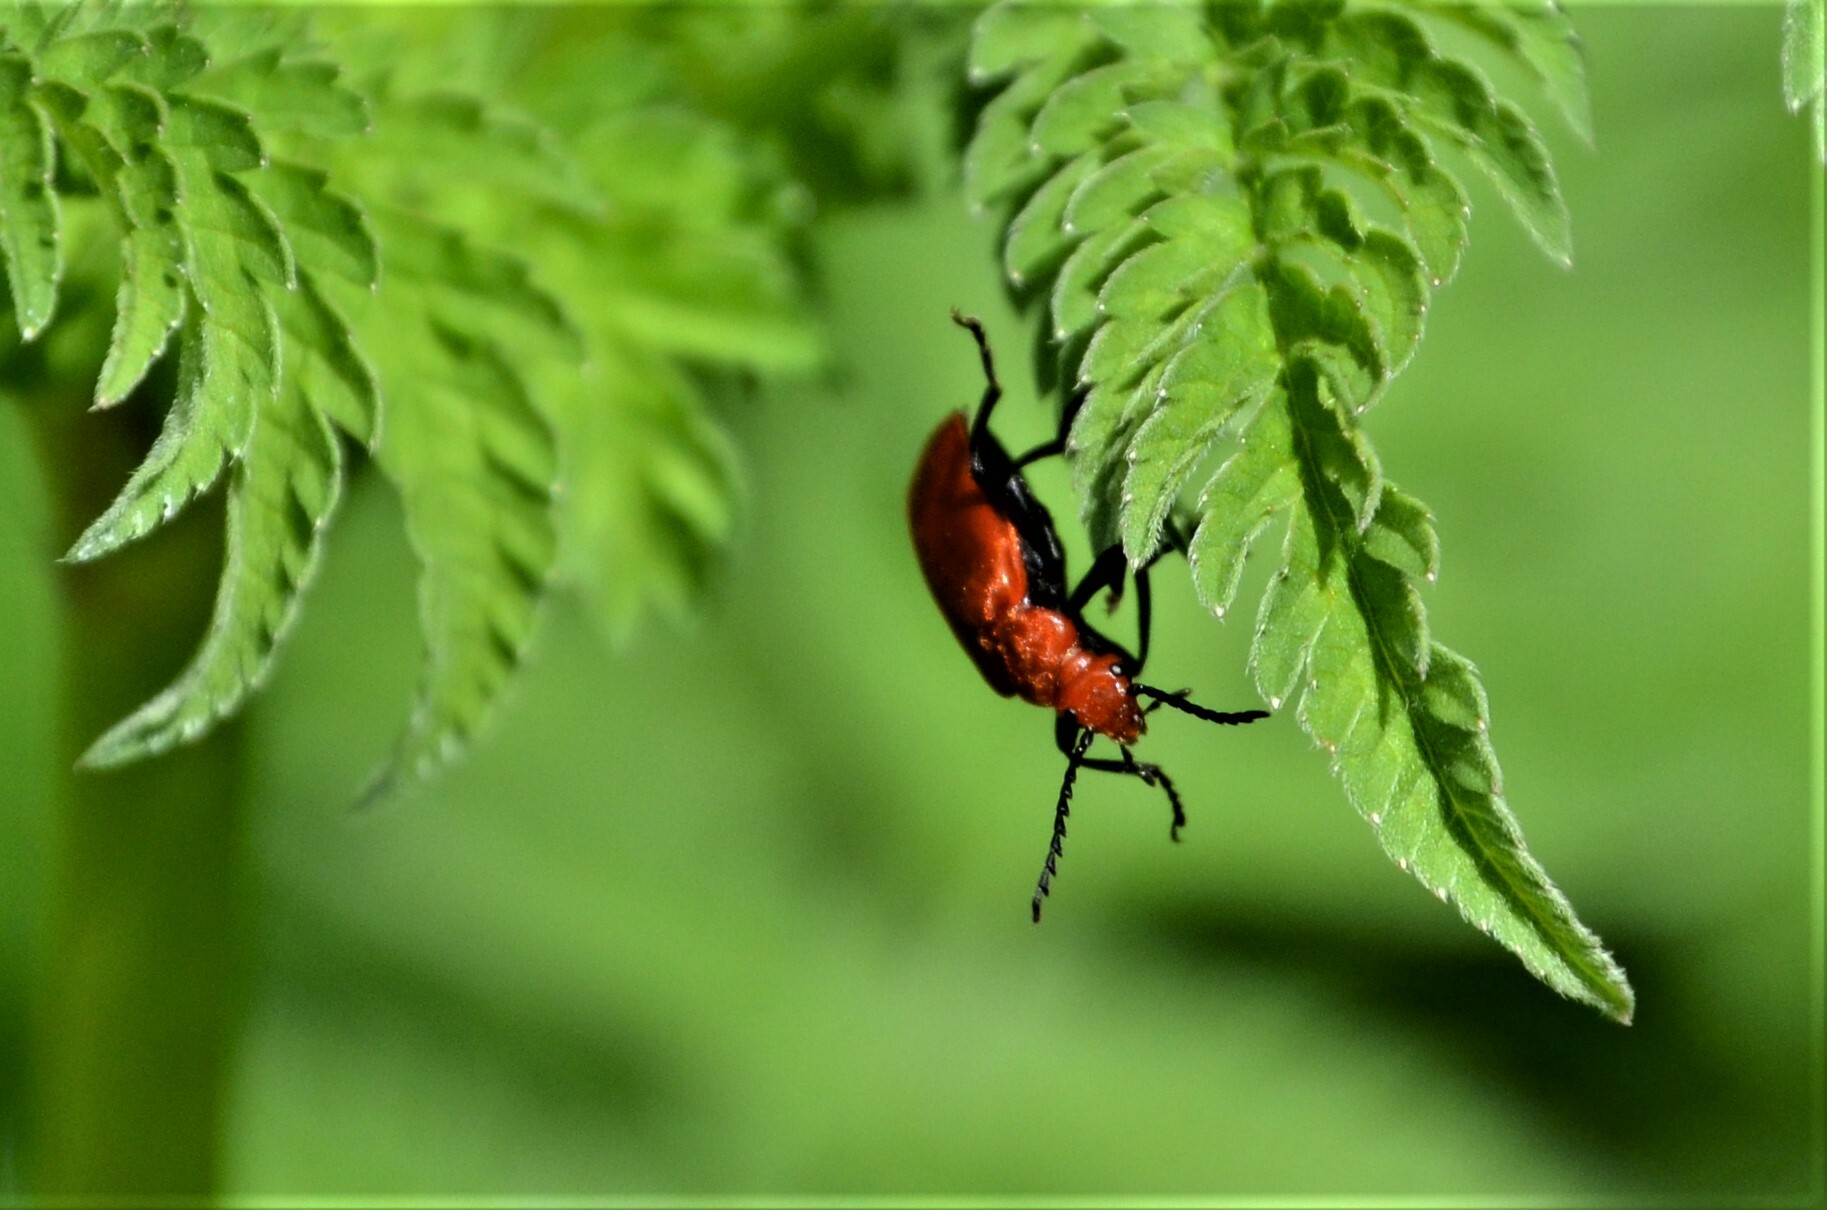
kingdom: Animalia
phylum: Arthropoda
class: Insecta
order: Coleoptera
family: Pyrochroidae
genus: Pyrochroa
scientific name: Pyrochroa serraticornis
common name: Red-headed cardinal beetle
